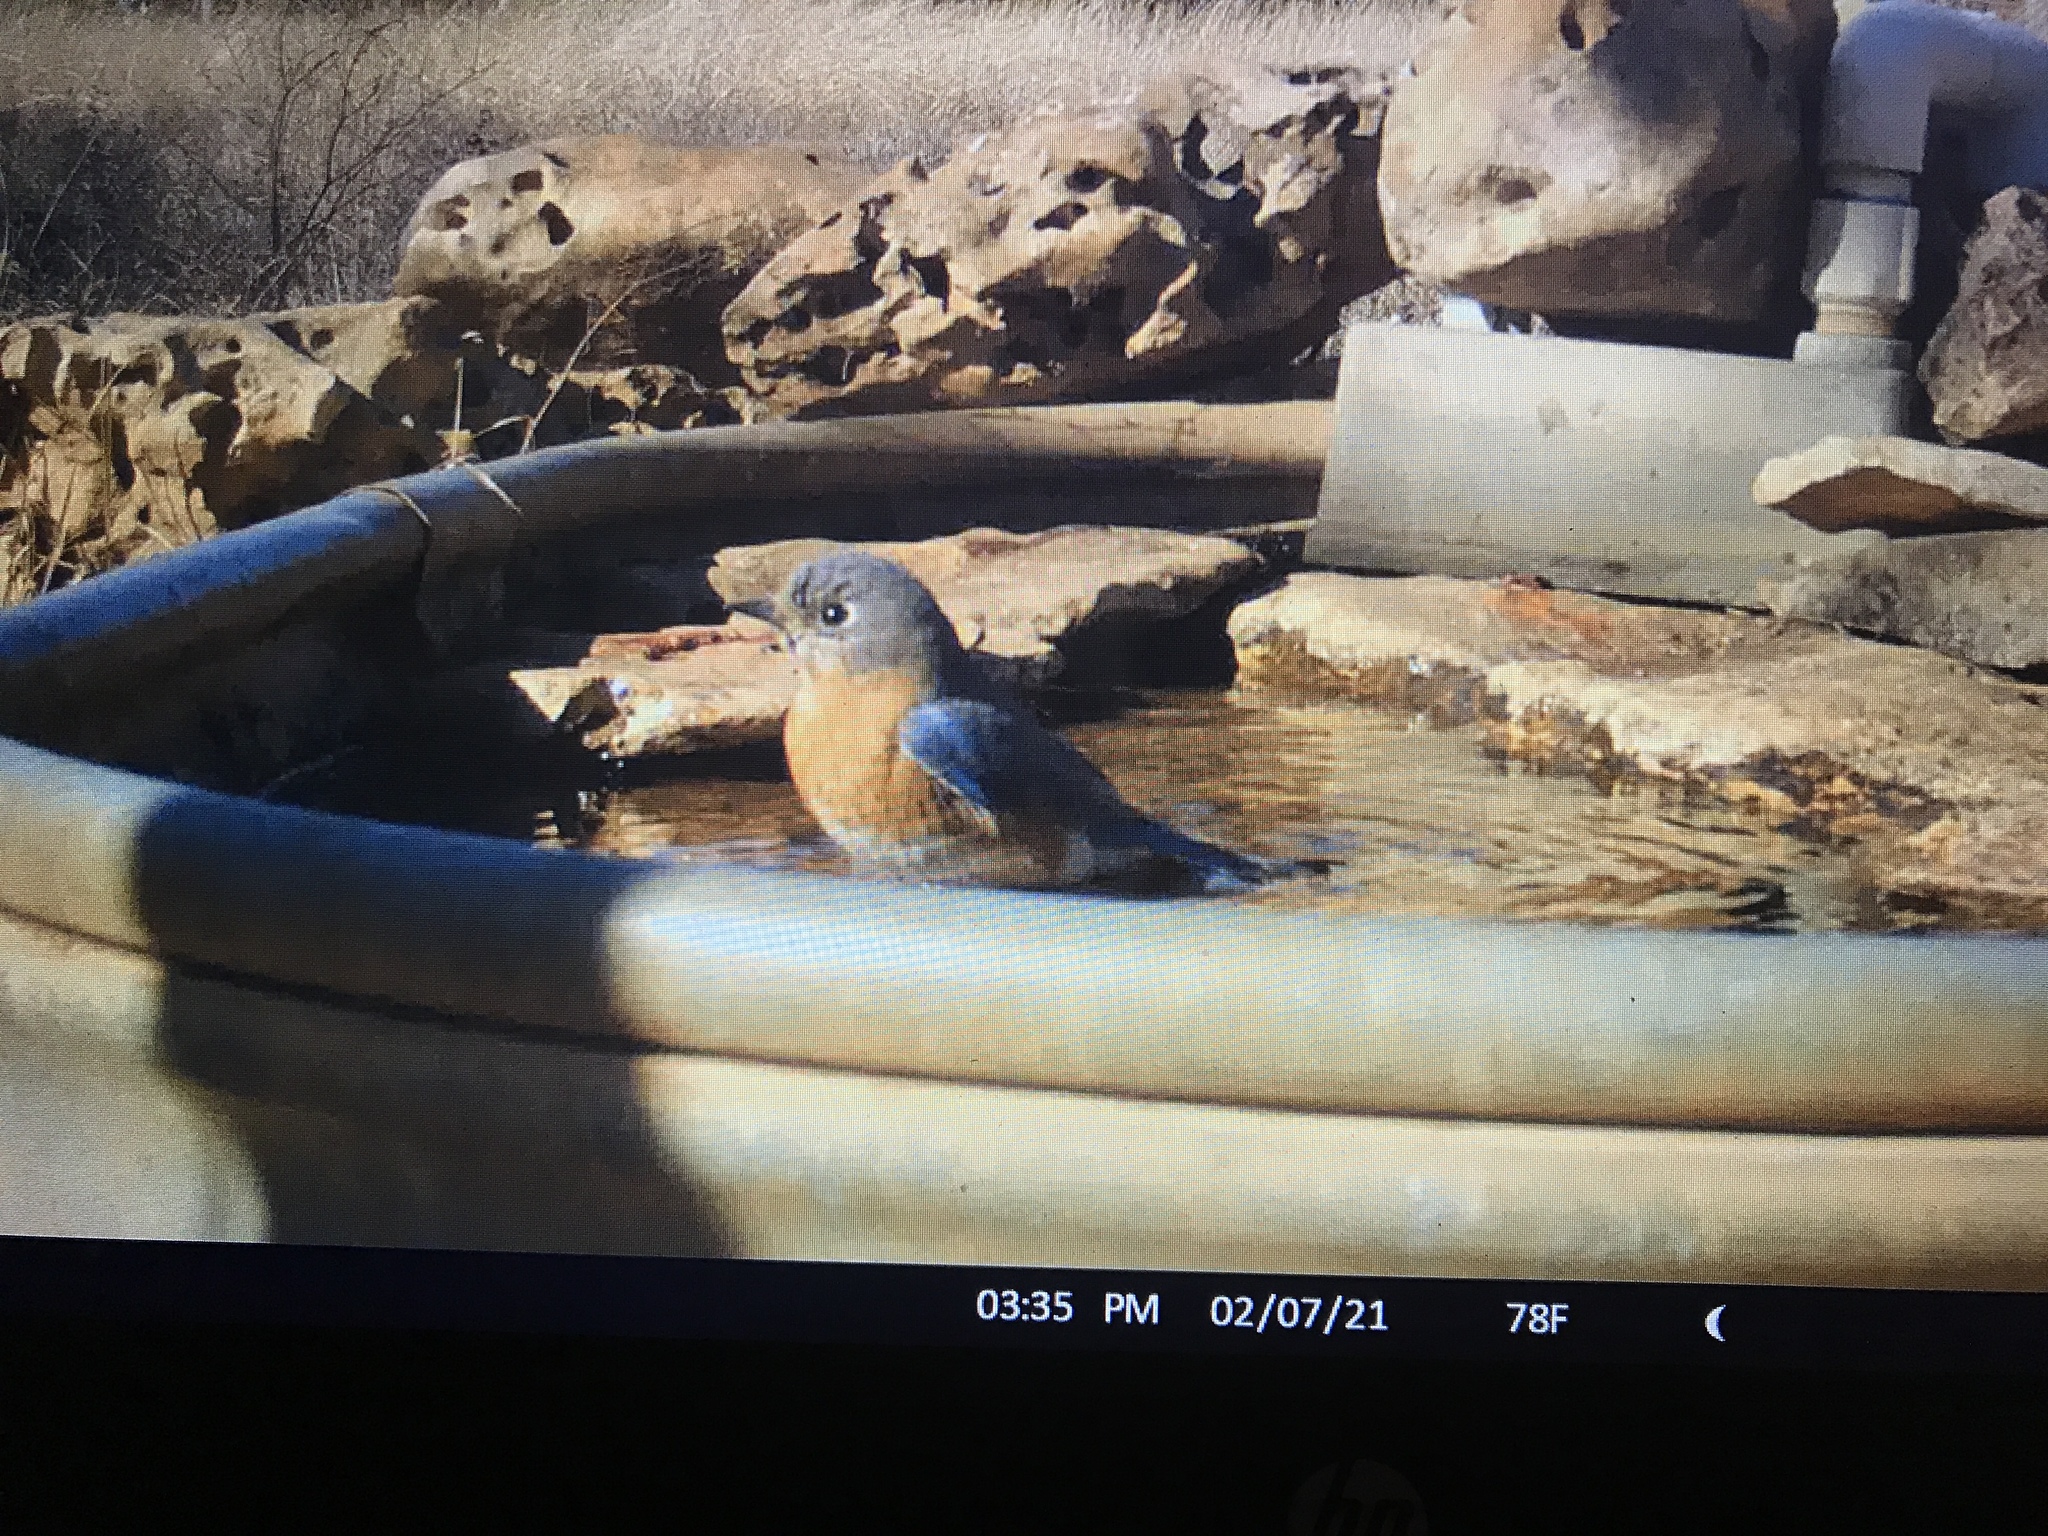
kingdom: Animalia
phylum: Chordata
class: Aves
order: Passeriformes
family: Turdidae
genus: Sialia
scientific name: Sialia sialis
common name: Eastern bluebird
